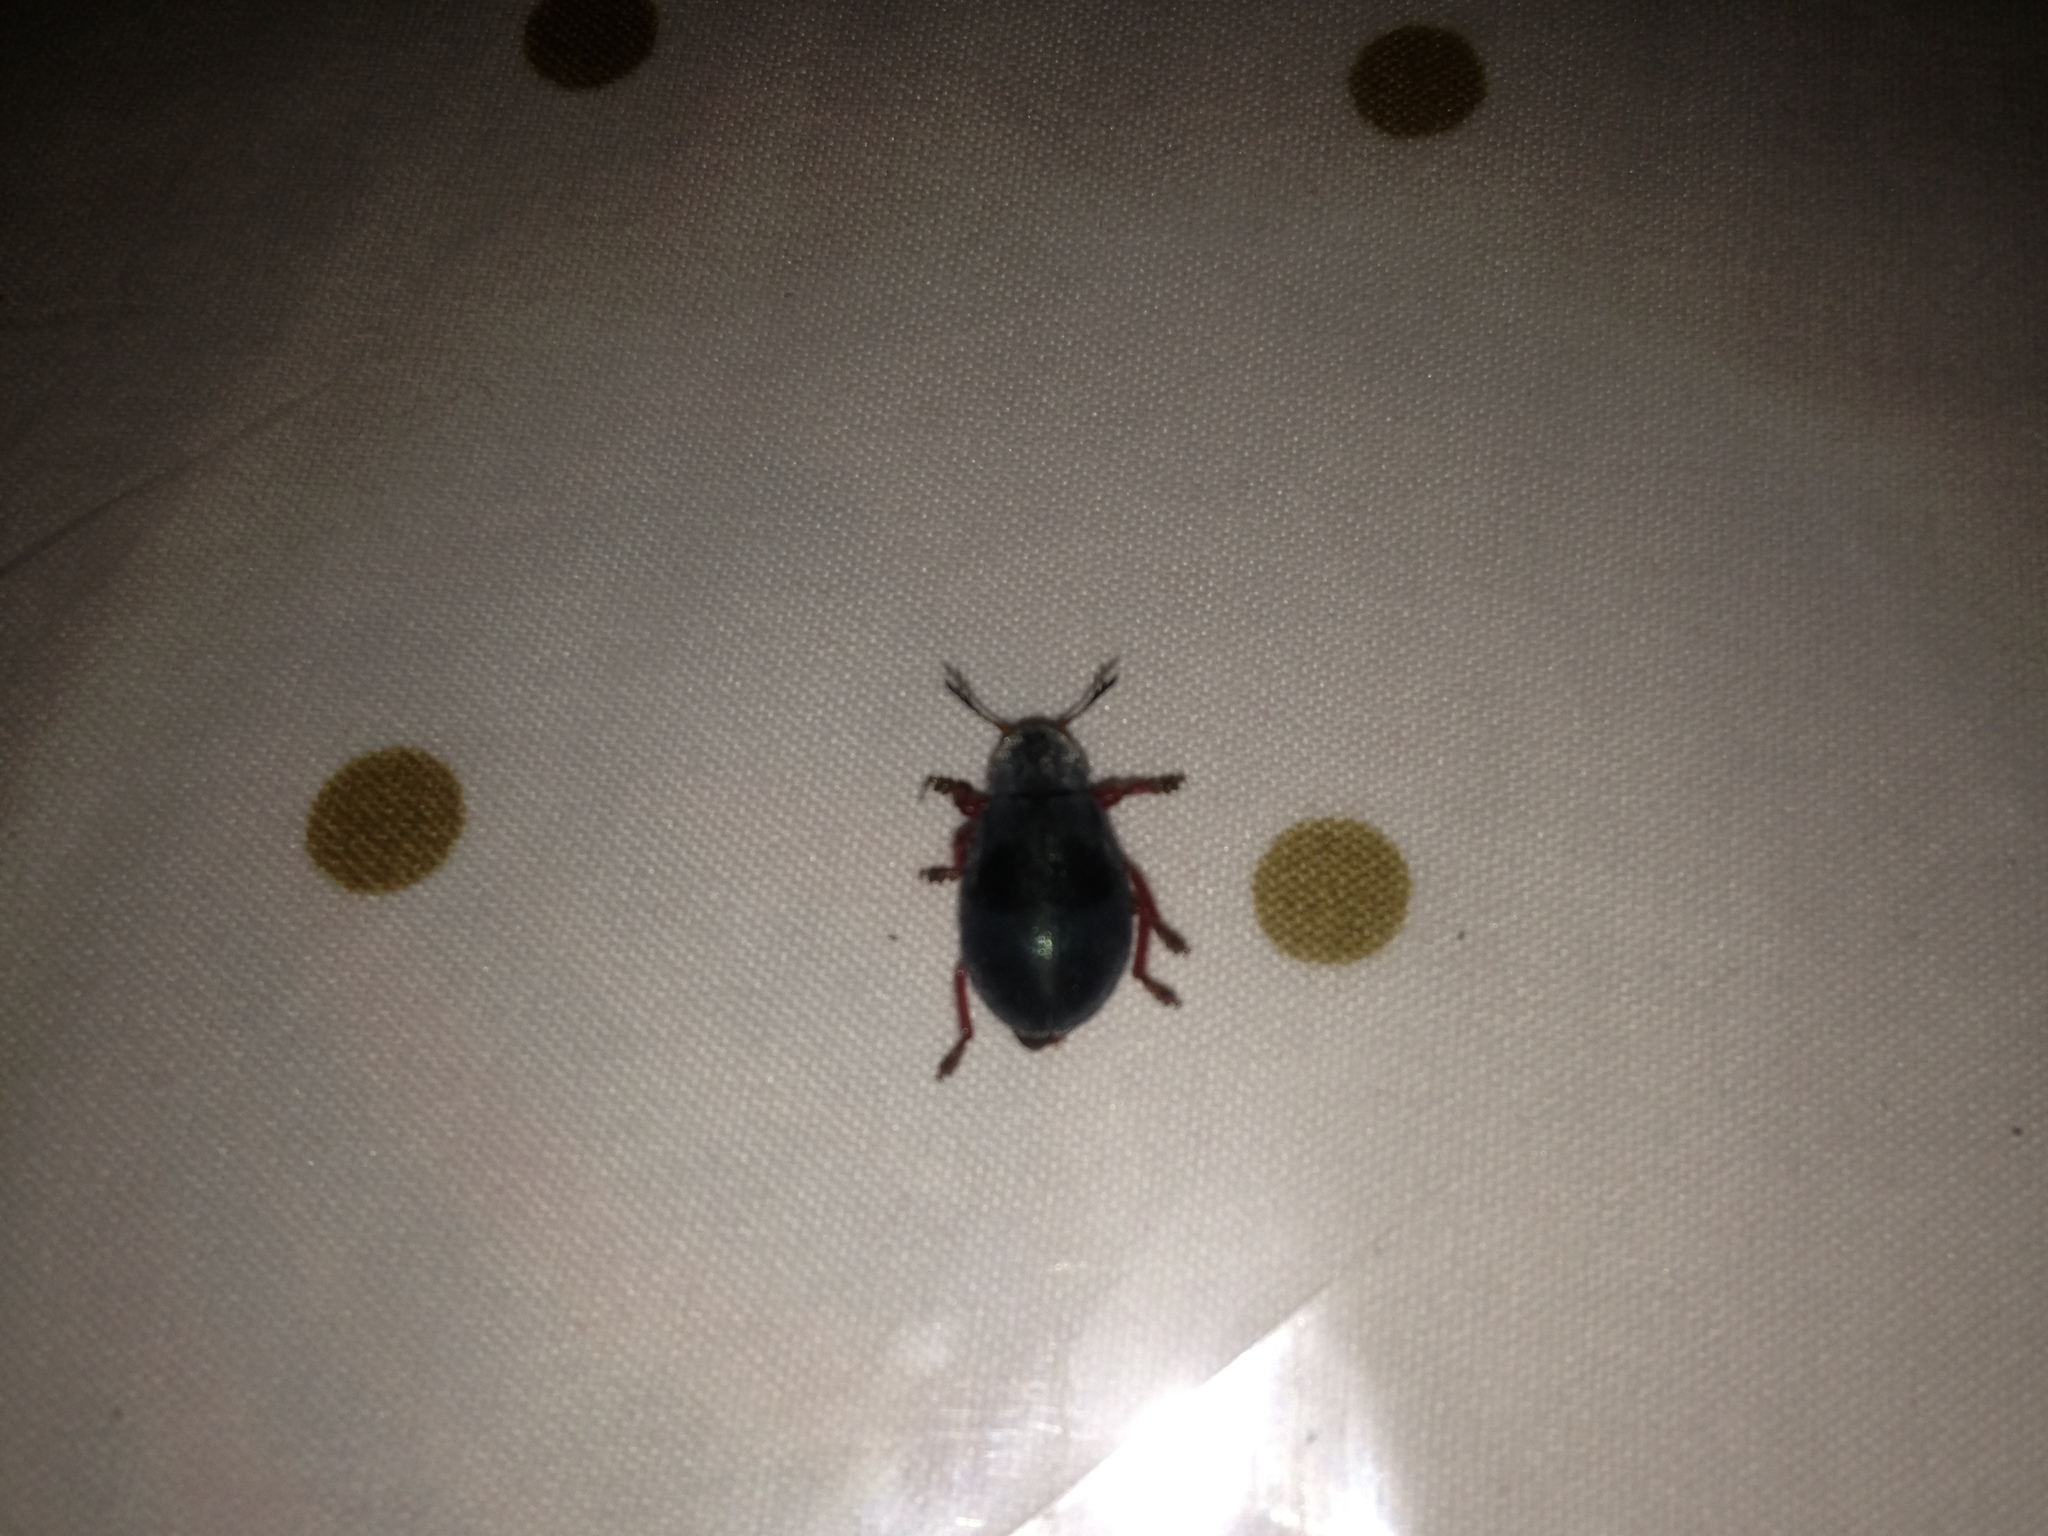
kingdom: Animalia
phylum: Arthropoda
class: Insecta
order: Coleoptera
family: Cleridae
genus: Chariessa
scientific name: Chariessa vestita
